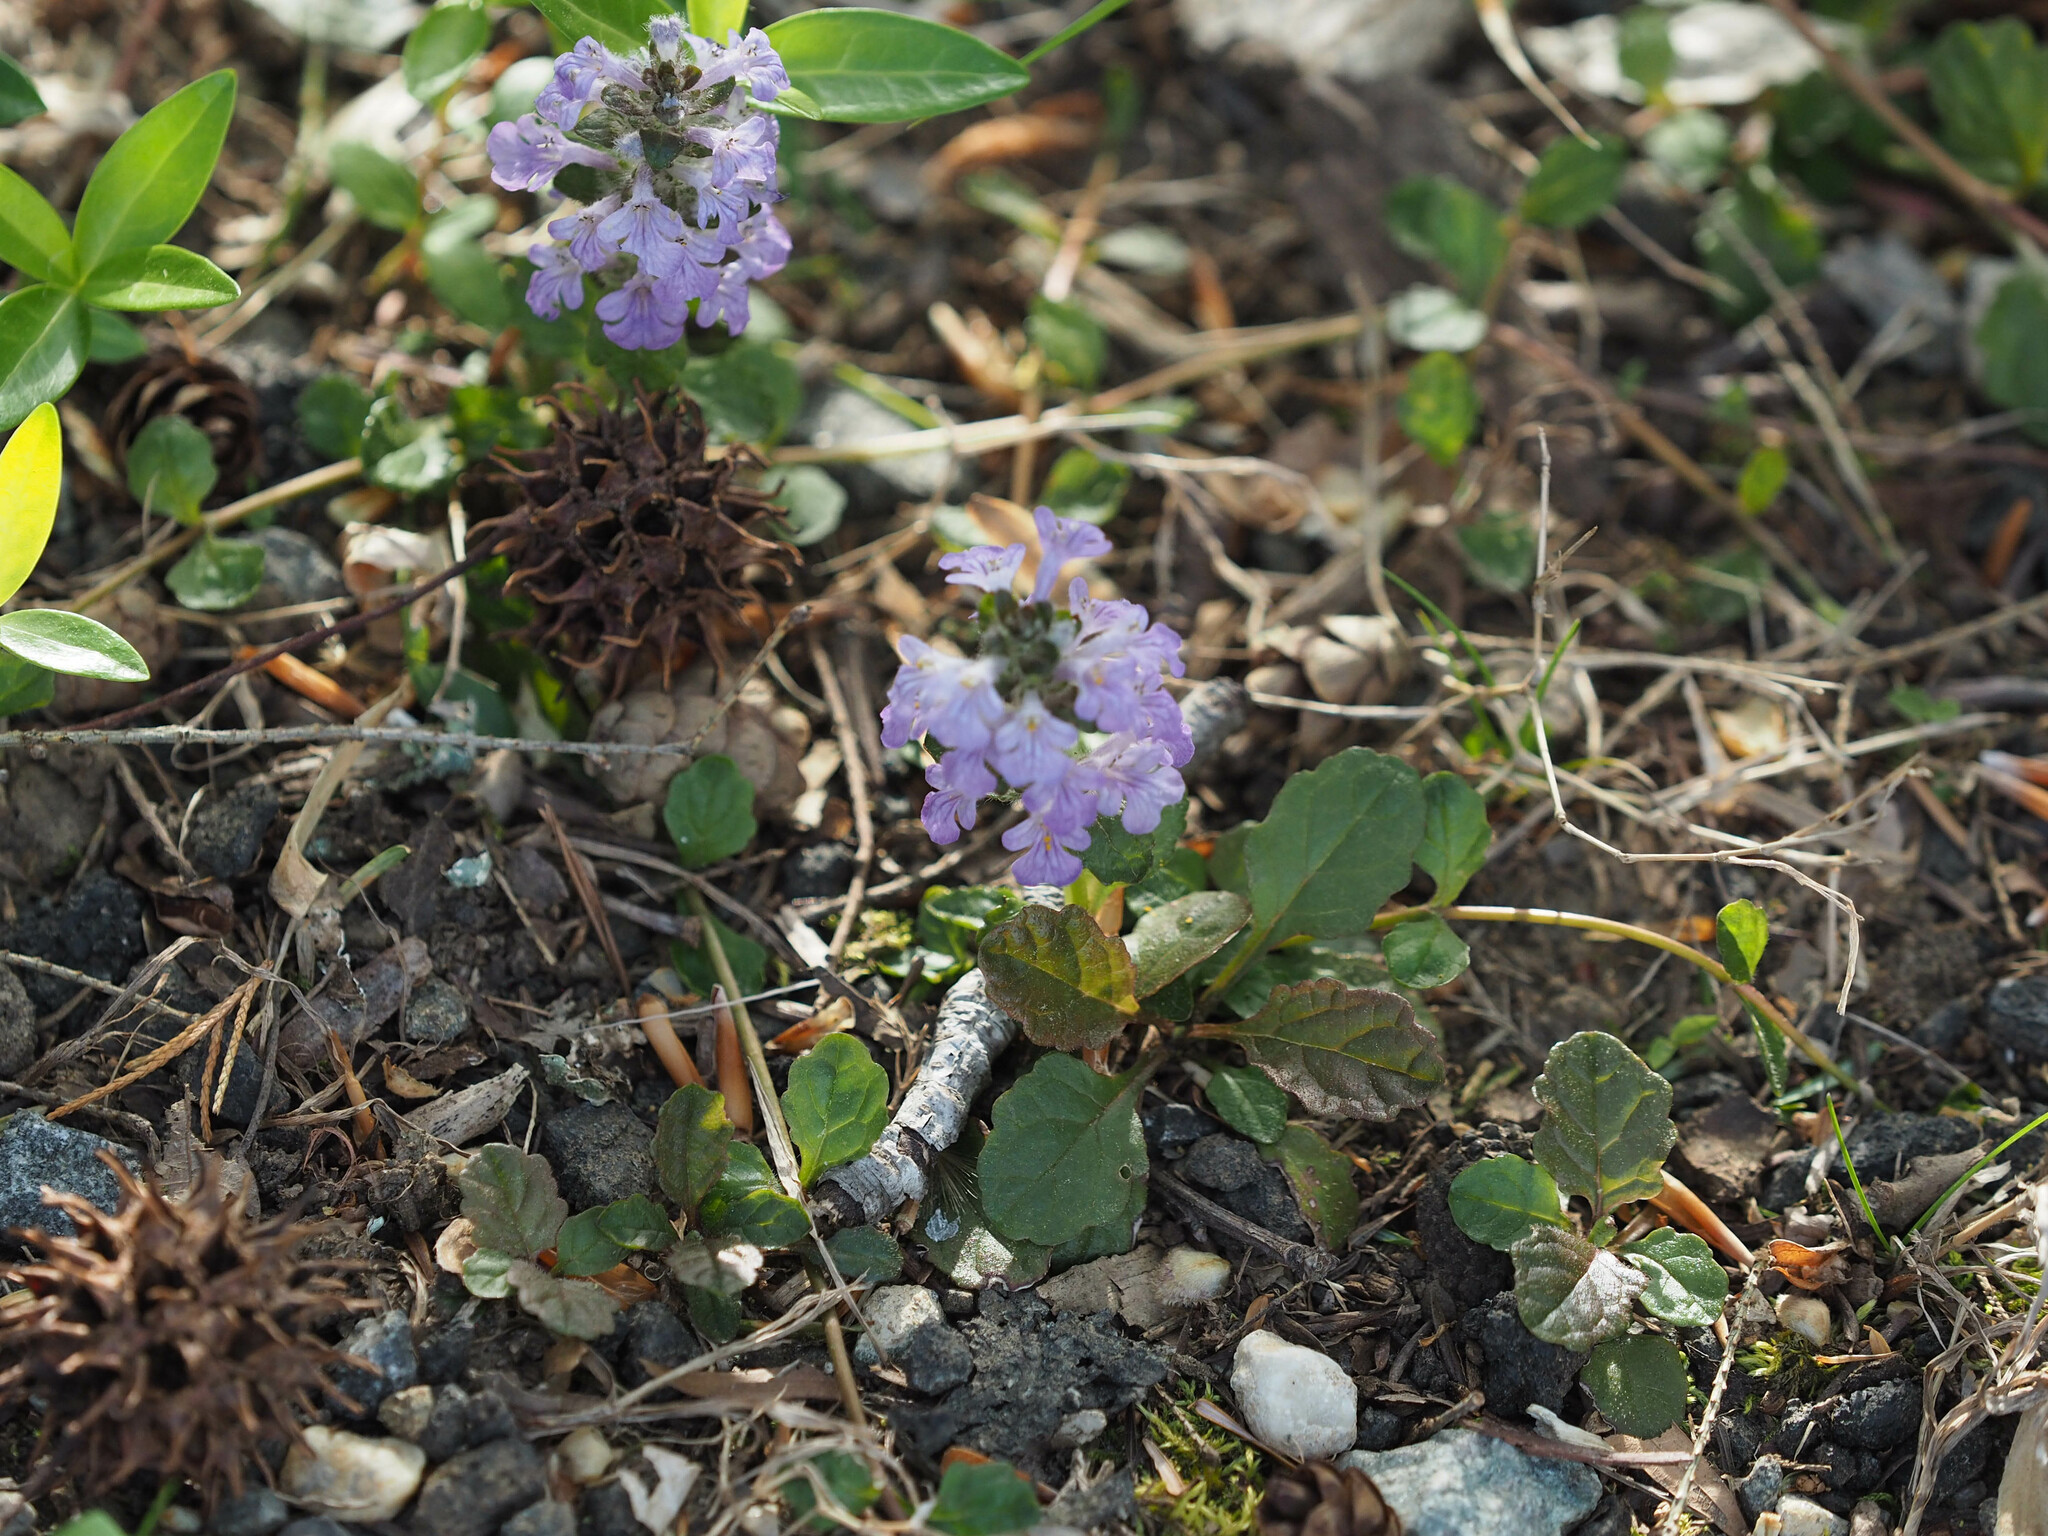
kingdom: Plantae
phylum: Tracheophyta
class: Magnoliopsida
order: Lamiales
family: Lamiaceae
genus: Ajuga
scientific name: Ajuga reptans
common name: Bugle
